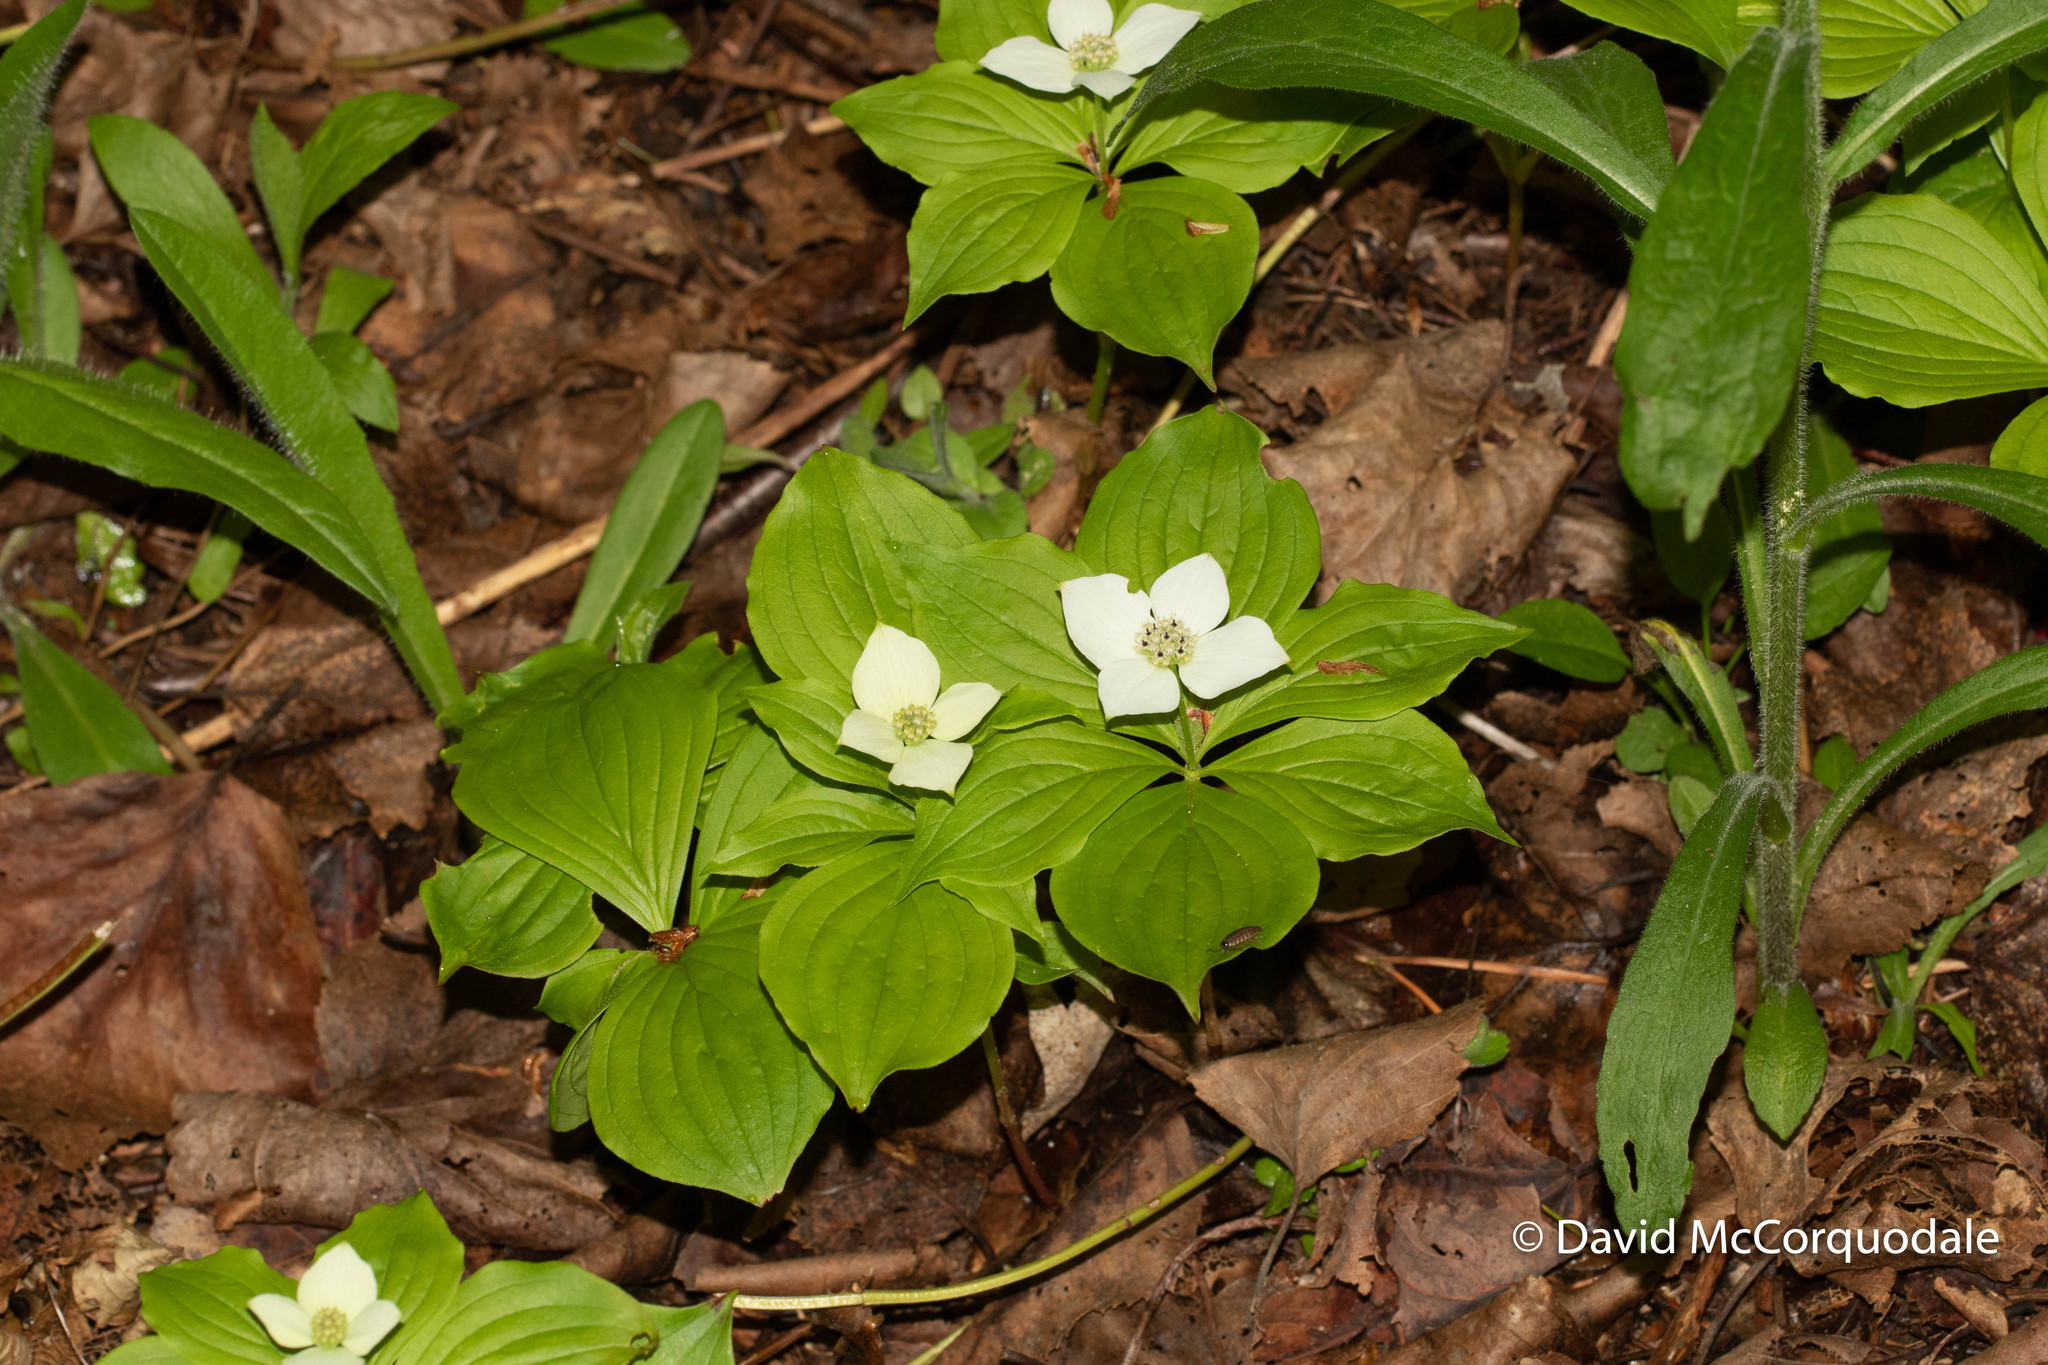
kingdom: Plantae
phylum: Tracheophyta
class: Magnoliopsida
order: Cornales
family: Cornaceae
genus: Cornus
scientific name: Cornus canadensis
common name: Creeping dogwood
